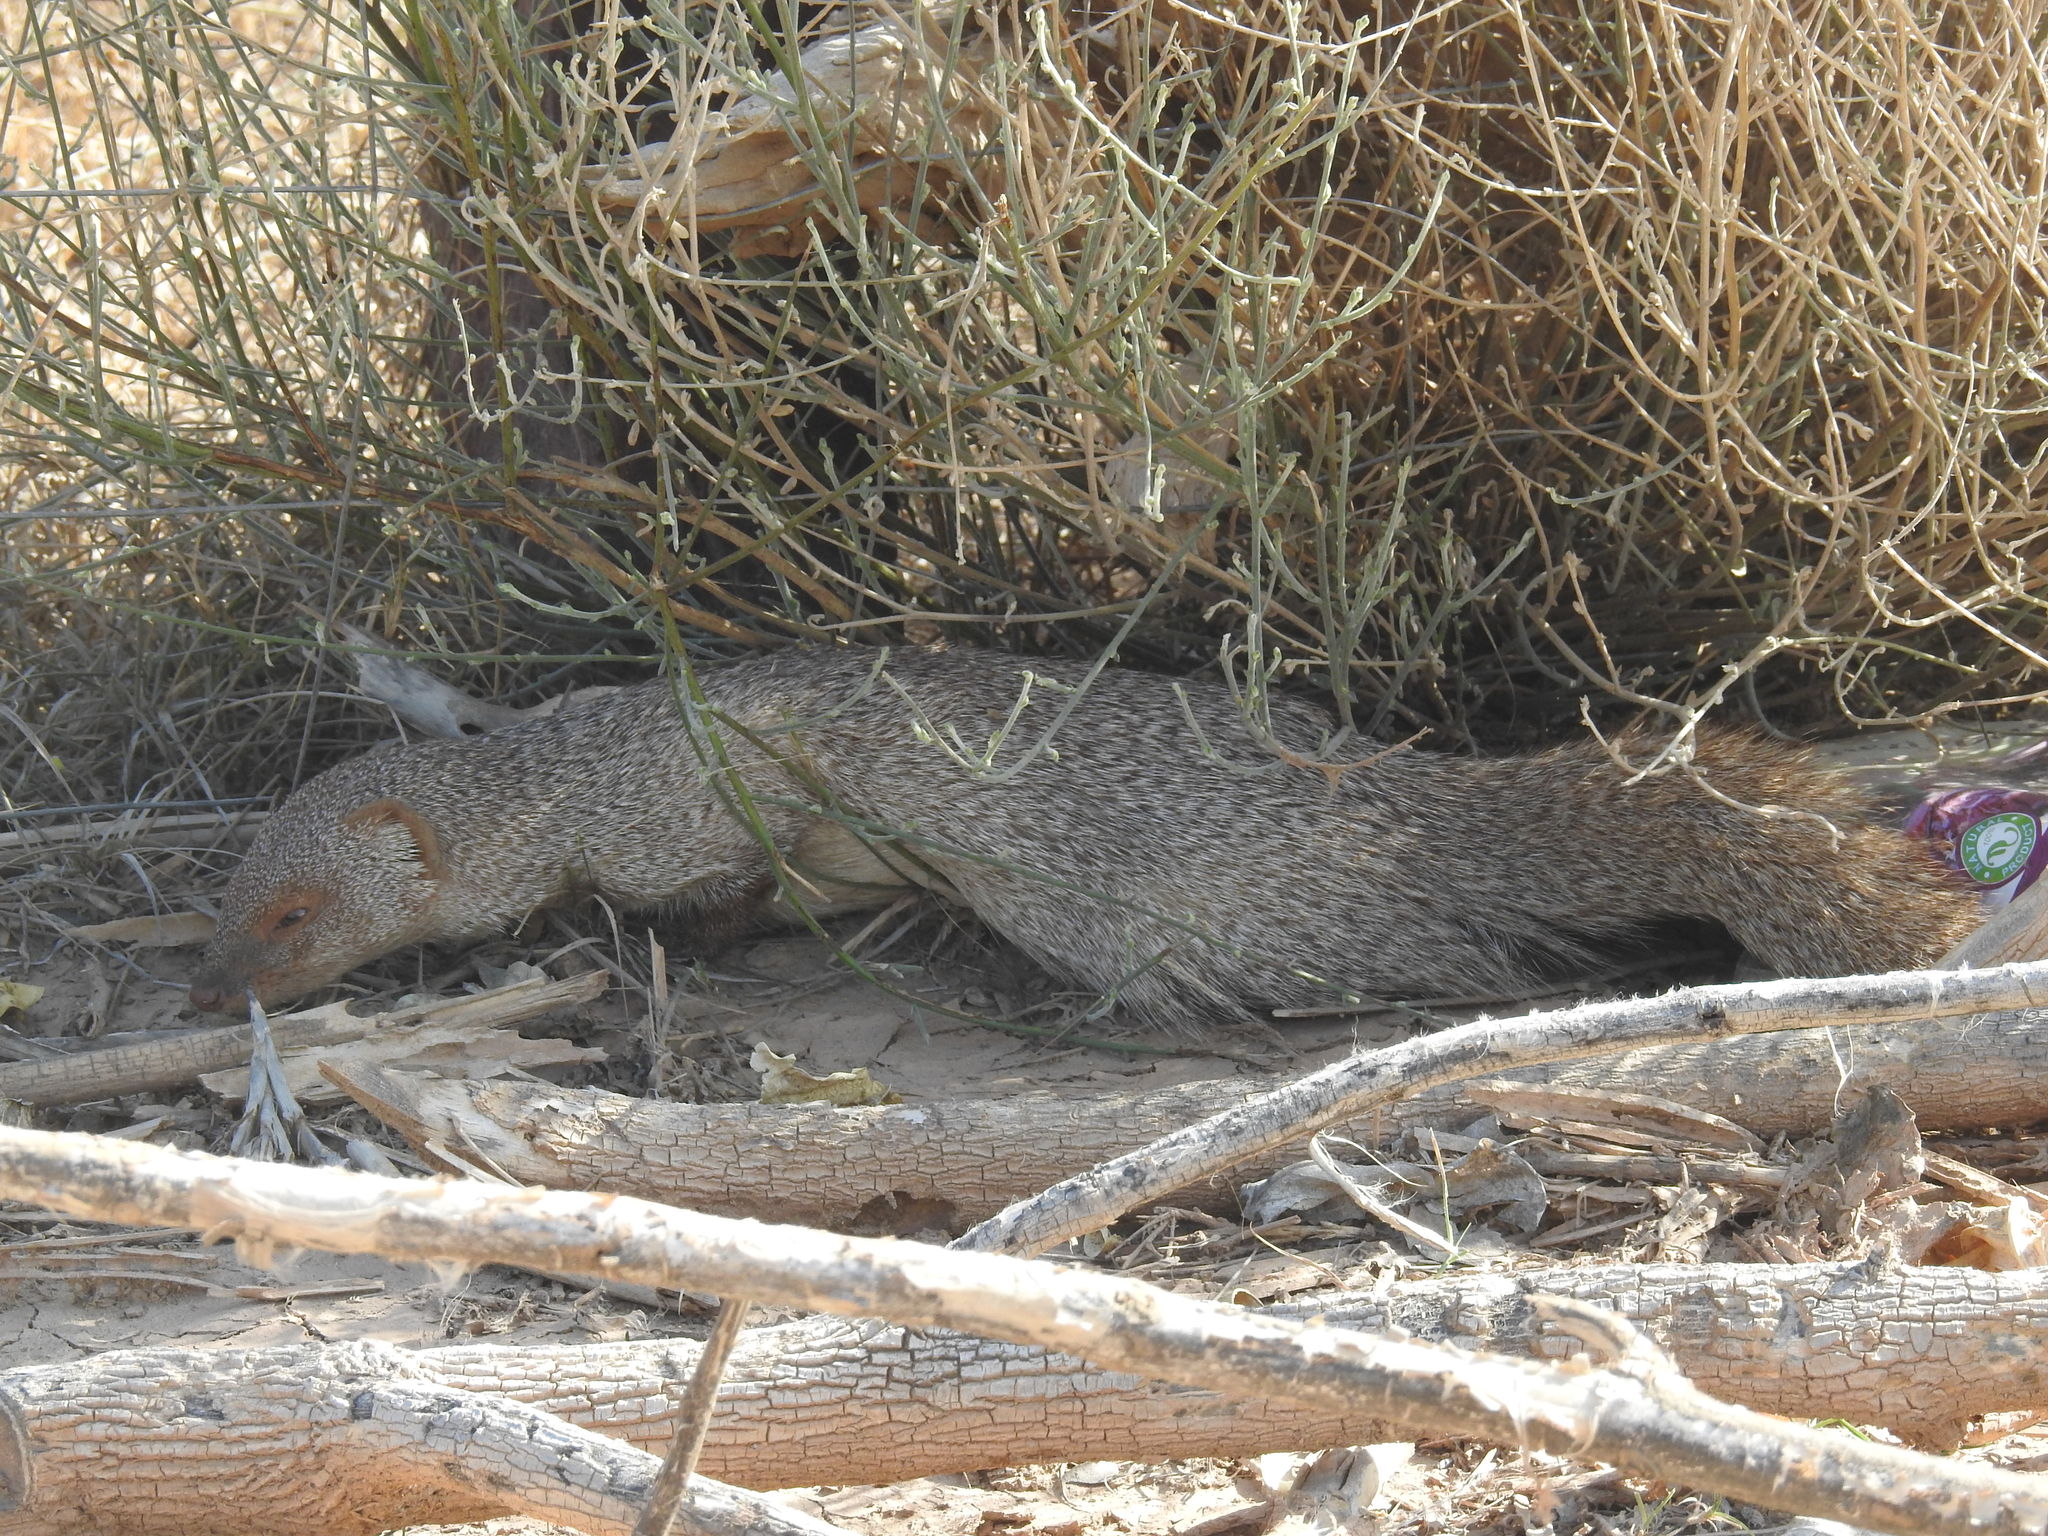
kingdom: Animalia
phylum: Chordata
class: Mammalia
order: Carnivora
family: Herpestidae
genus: Herpestes
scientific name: Herpestes edwardsi
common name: Indian gray mongoose
